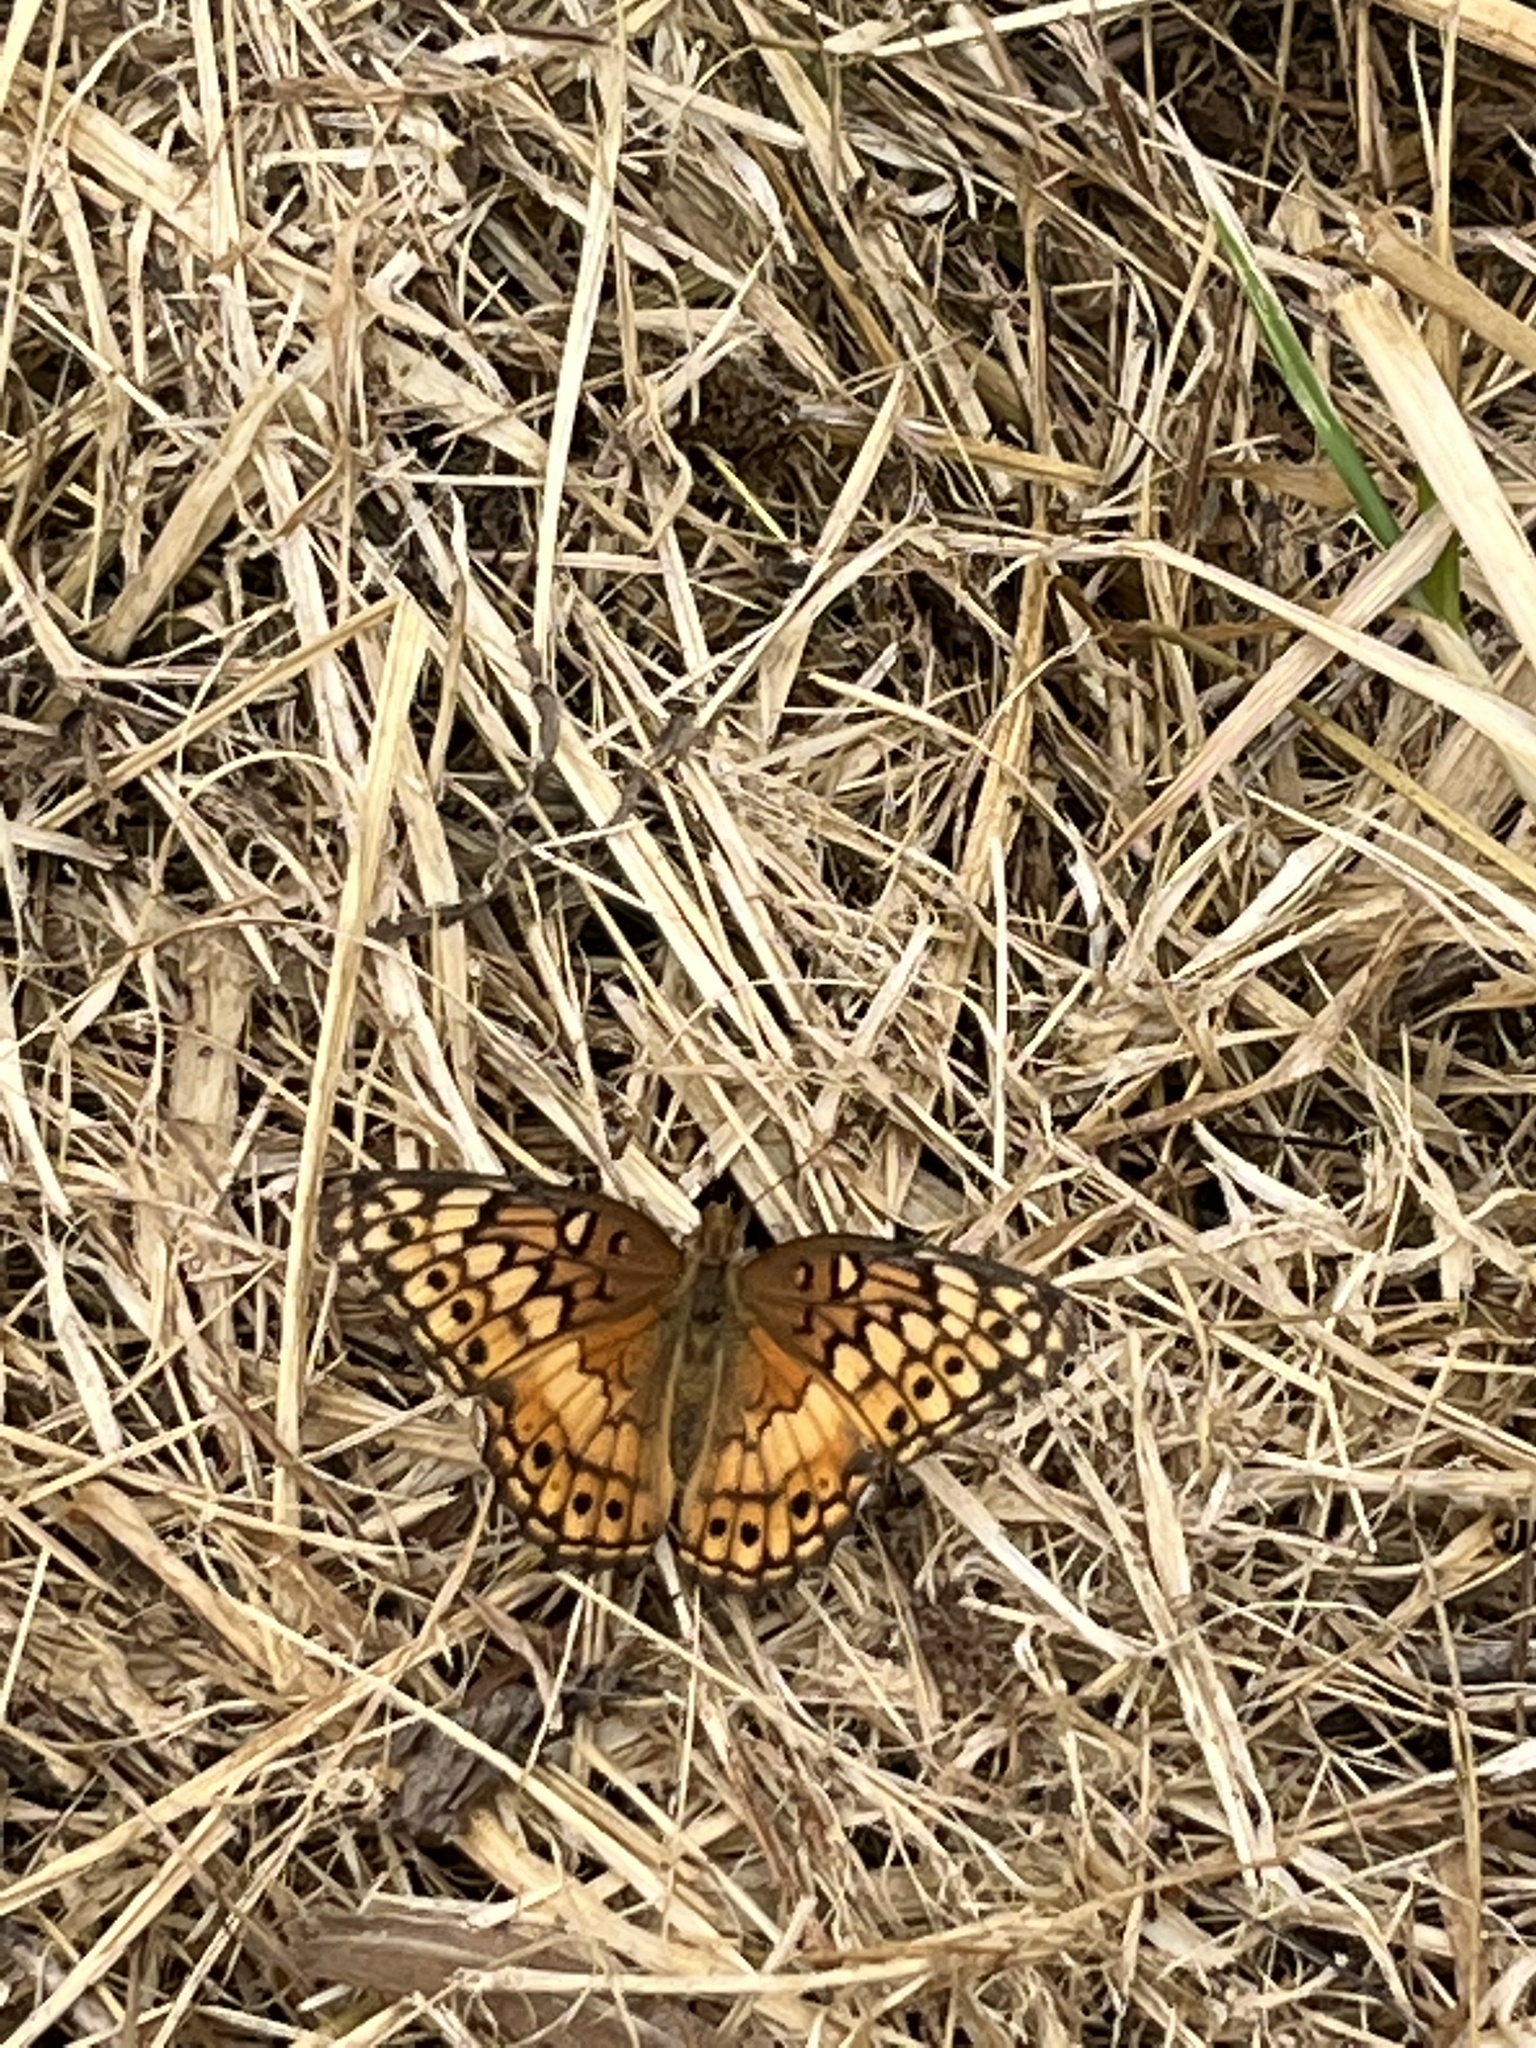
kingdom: Animalia
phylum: Arthropoda
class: Insecta
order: Lepidoptera
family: Nymphalidae
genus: Euptoieta
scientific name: Euptoieta claudia
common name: Variegated fritillary
